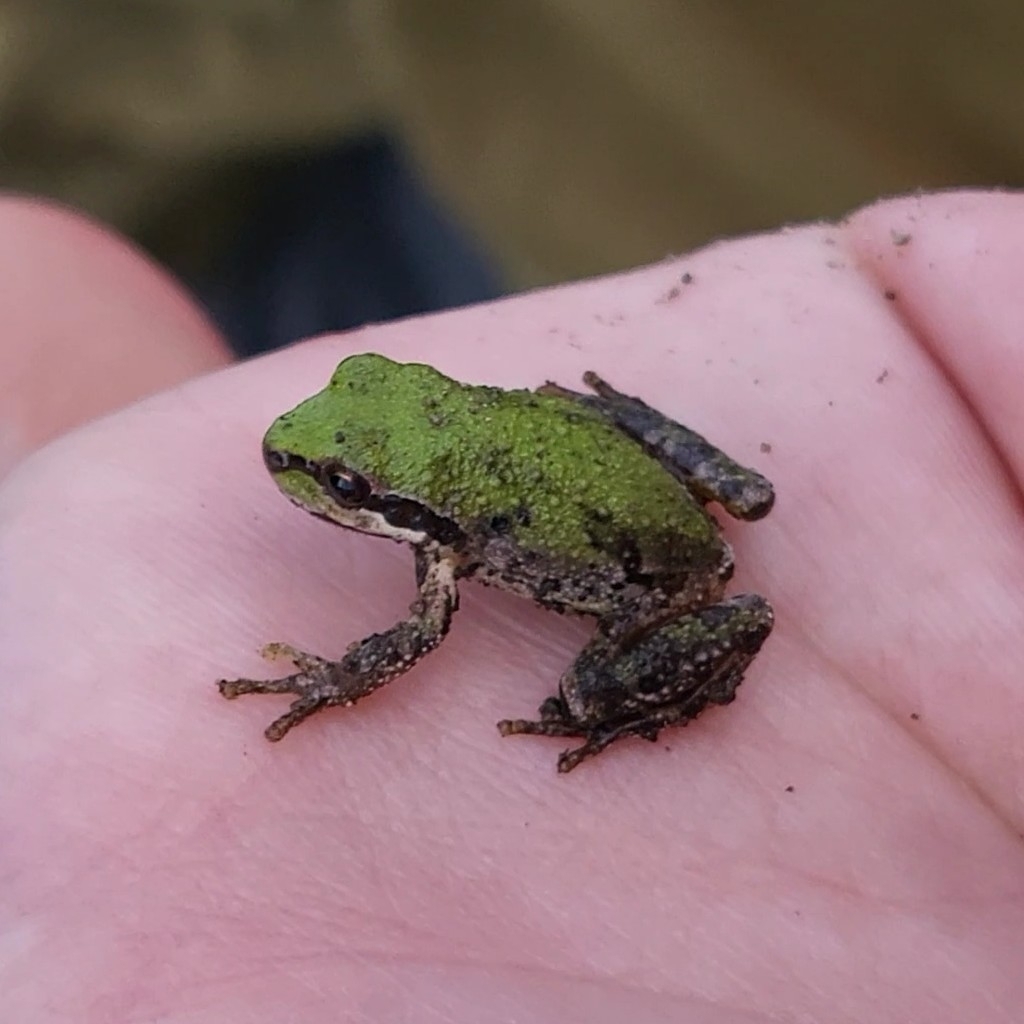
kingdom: Animalia
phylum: Chordata
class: Amphibia
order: Anura
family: Hylidae
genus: Pseudacris
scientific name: Pseudacris regilla
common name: Pacific chorus frog
